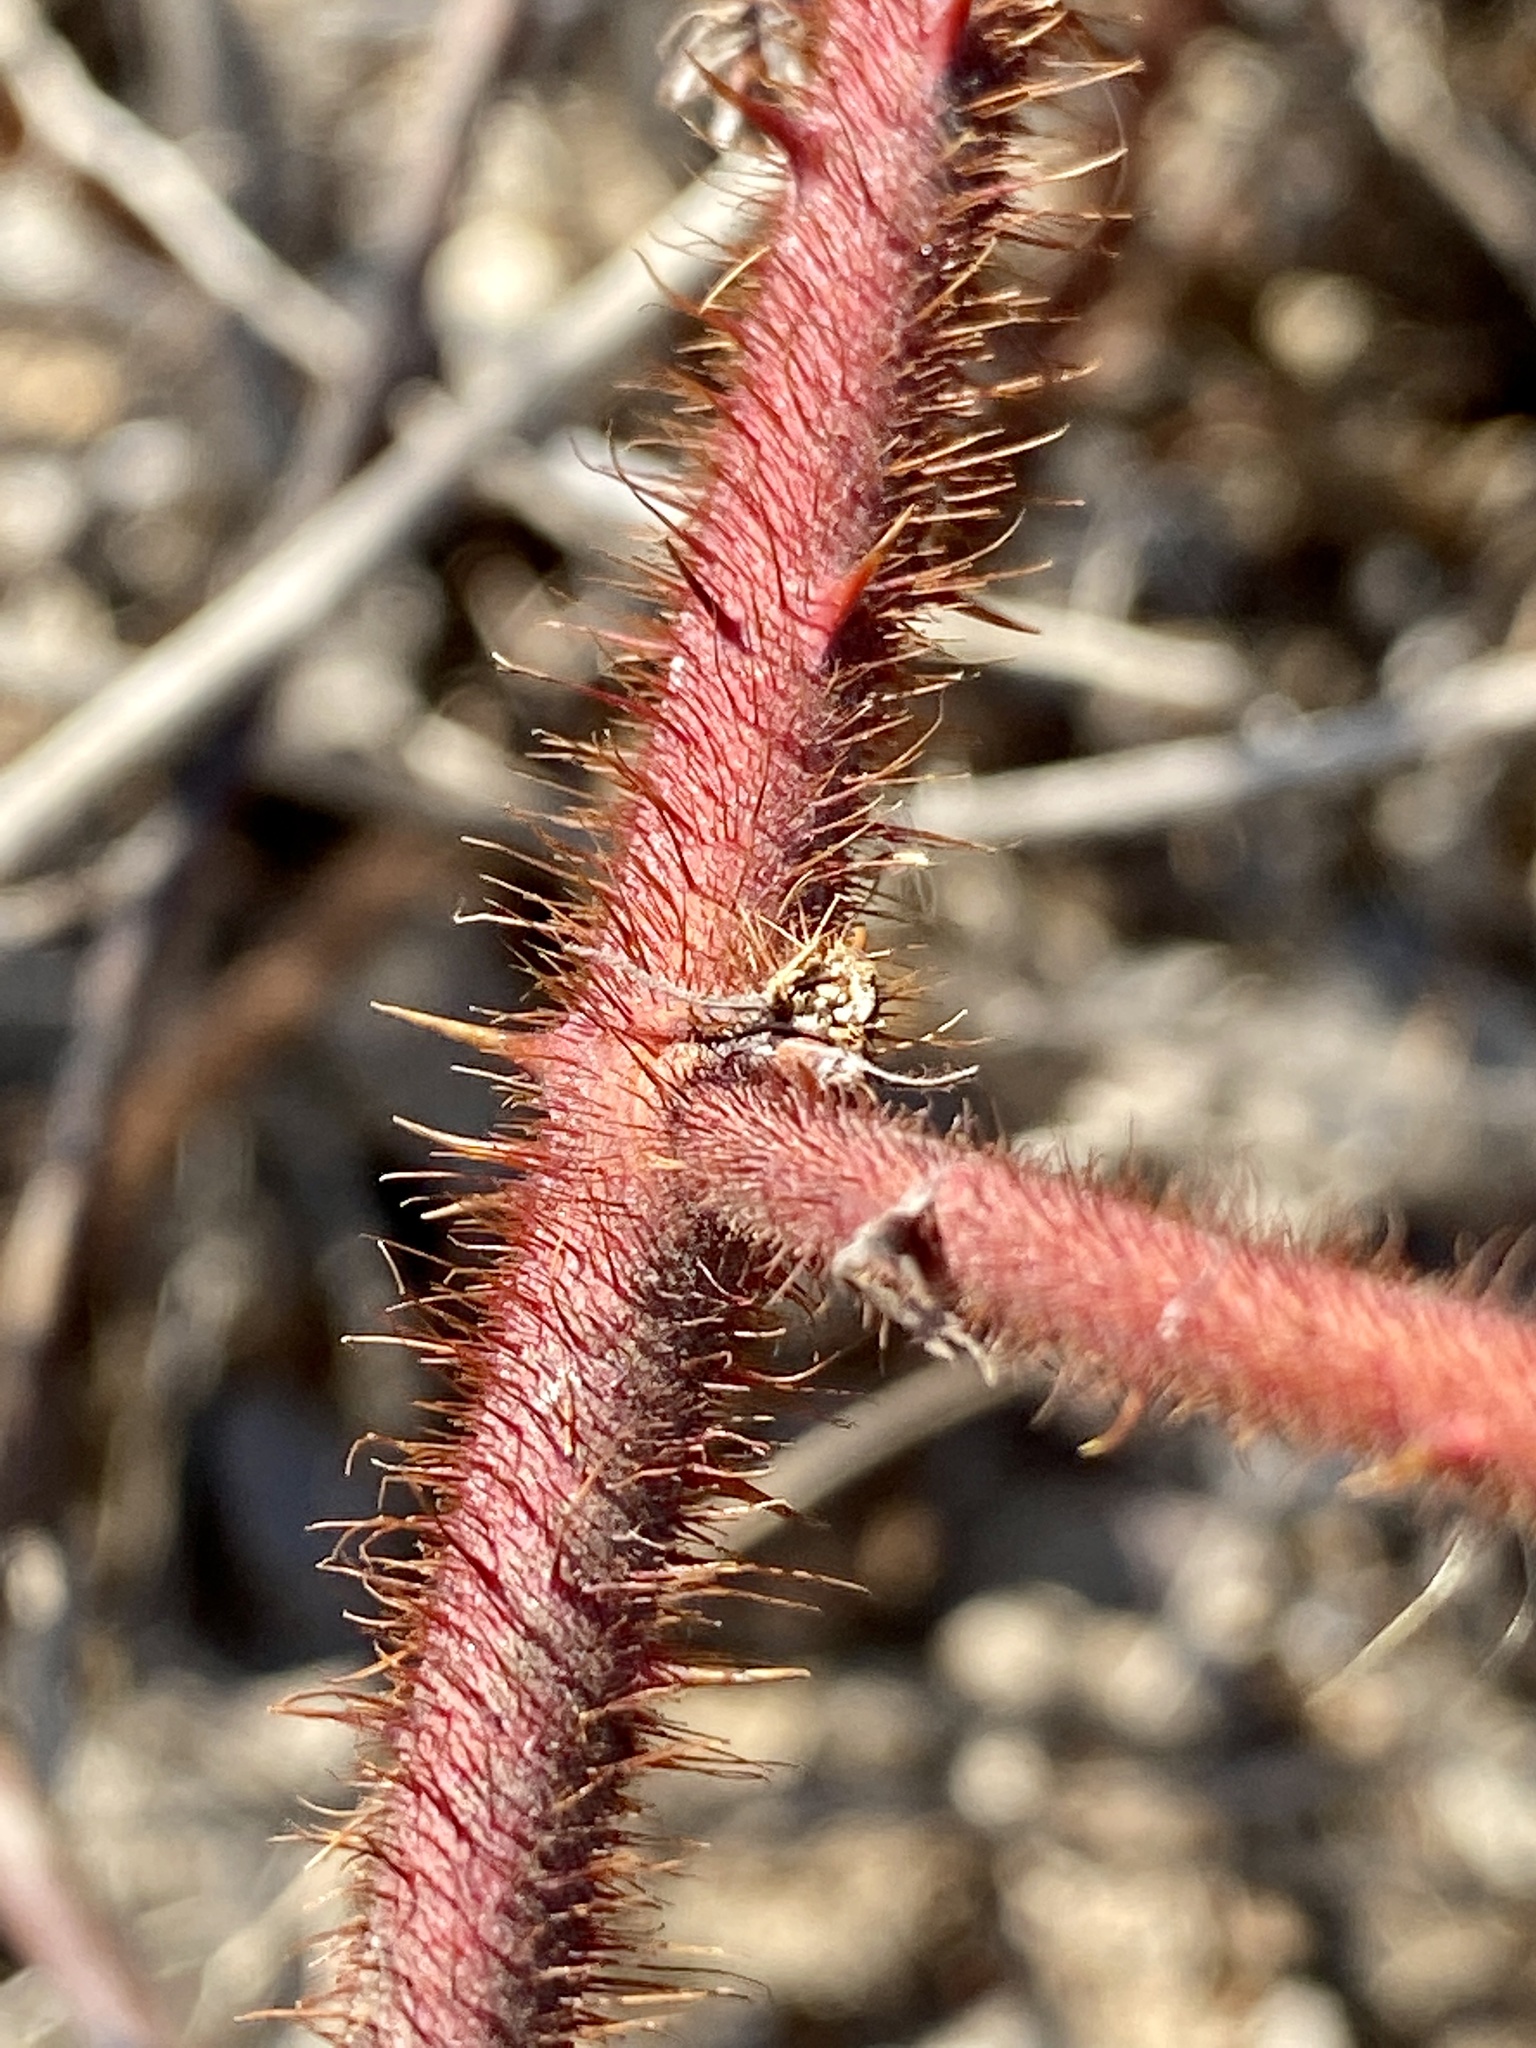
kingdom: Plantae
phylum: Tracheophyta
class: Magnoliopsida
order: Rosales
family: Rosaceae
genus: Rubus
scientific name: Rubus phoenicolasius
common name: Japanese wineberry
